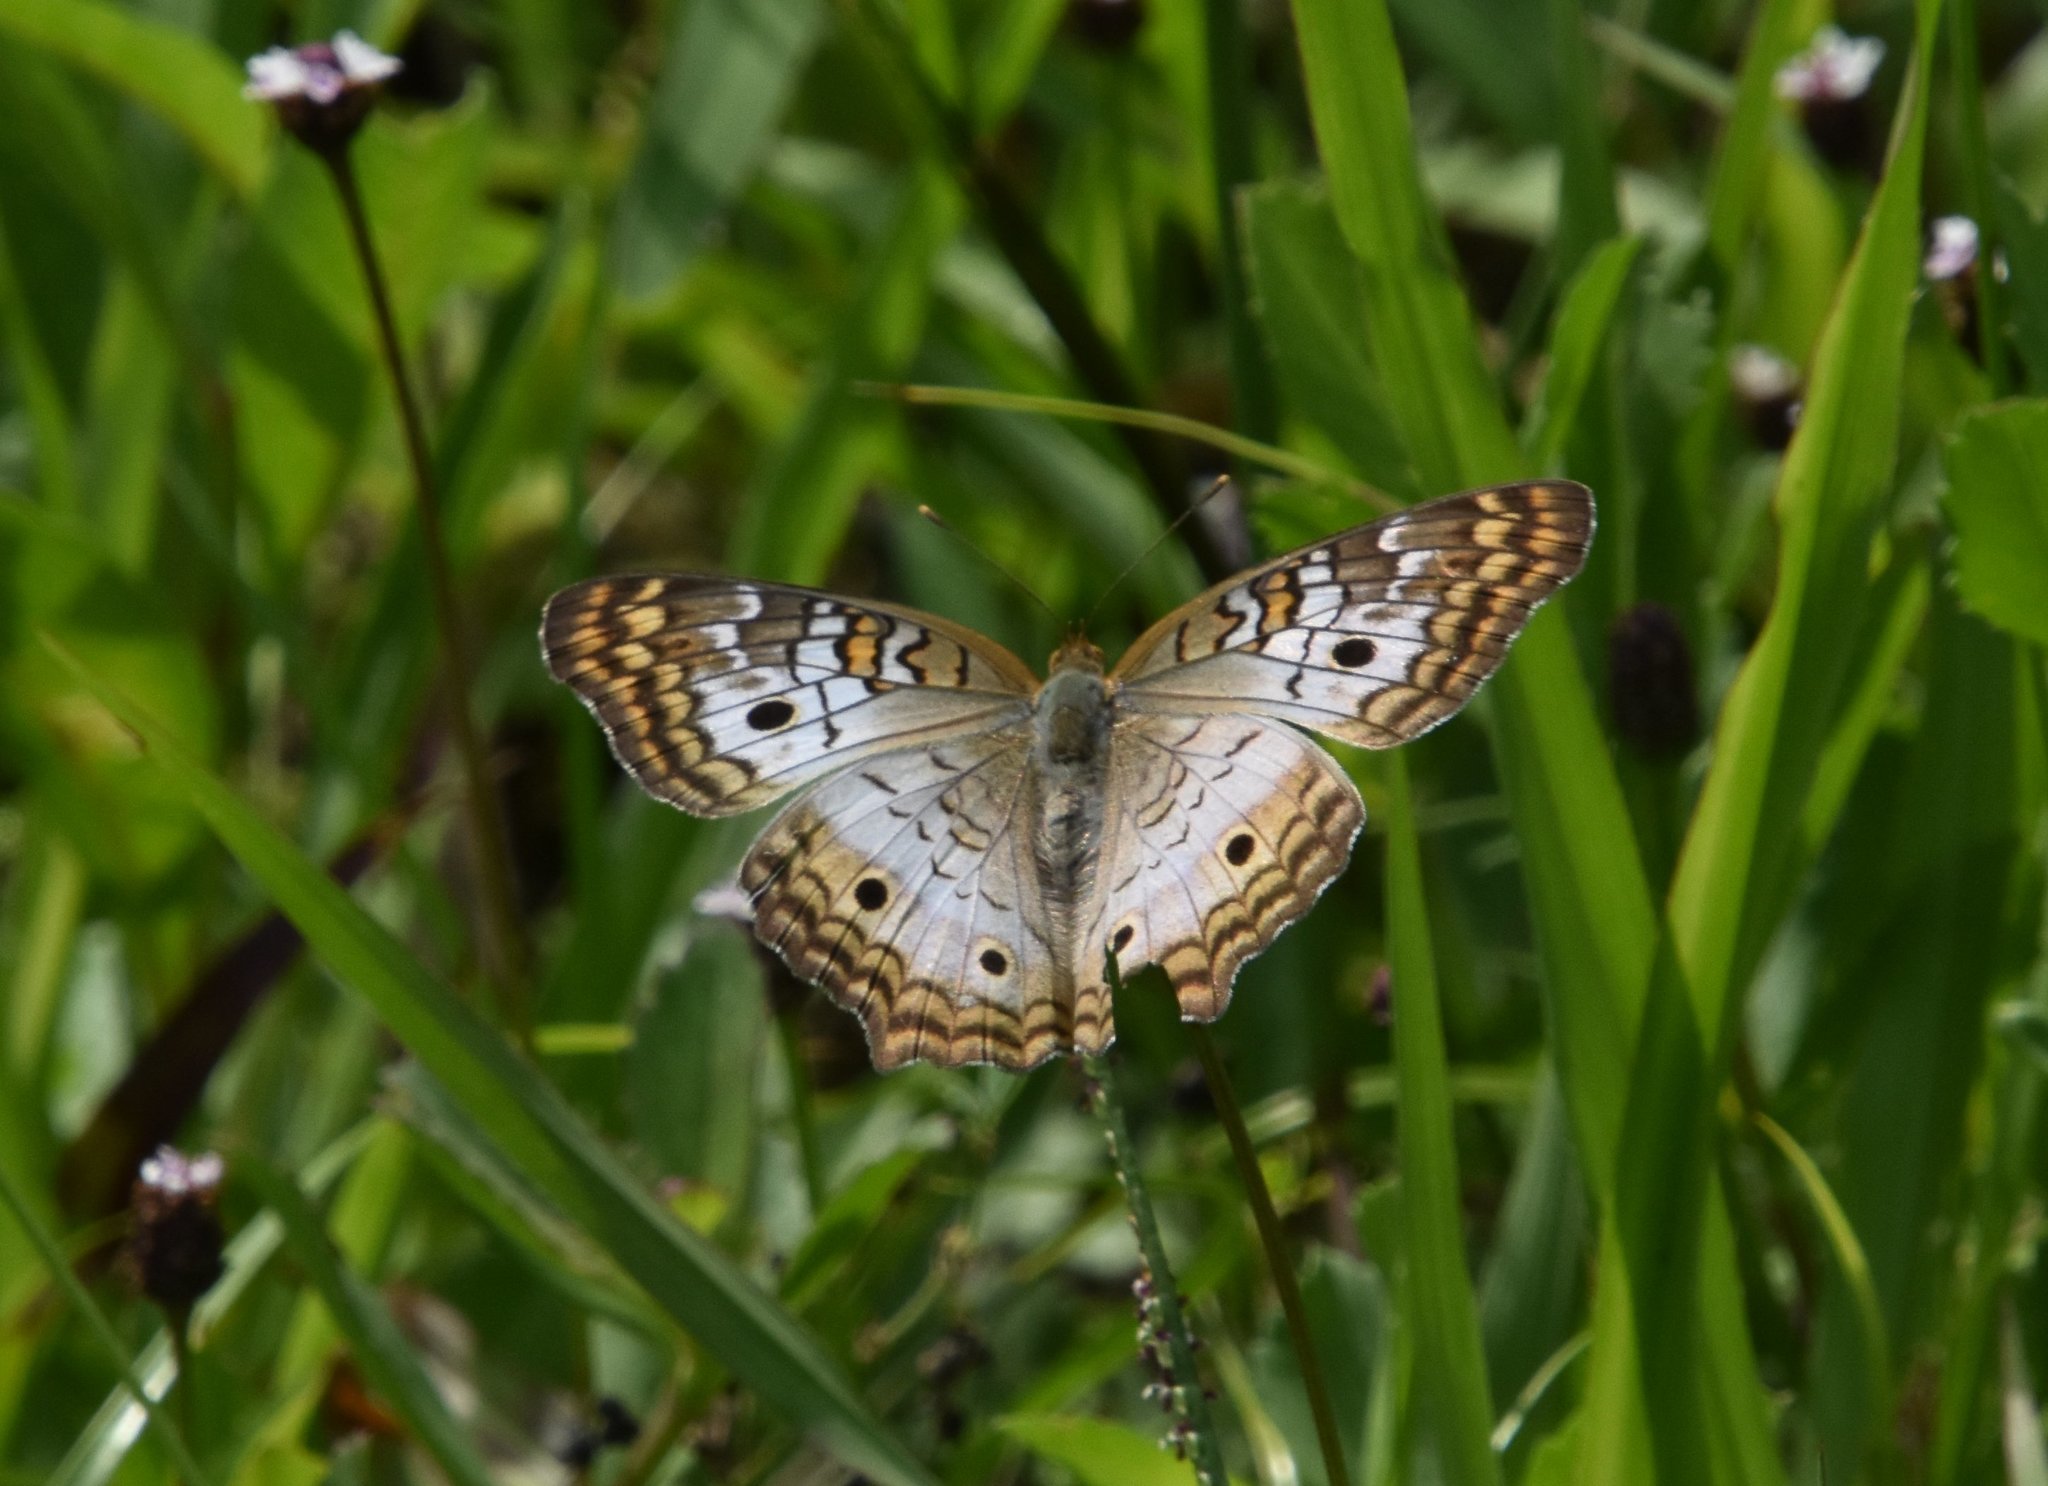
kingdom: Animalia
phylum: Arthropoda
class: Insecta
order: Lepidoptera
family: Nymphalidae
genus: Anartia
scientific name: Anartia jatrophae
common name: White peacock
